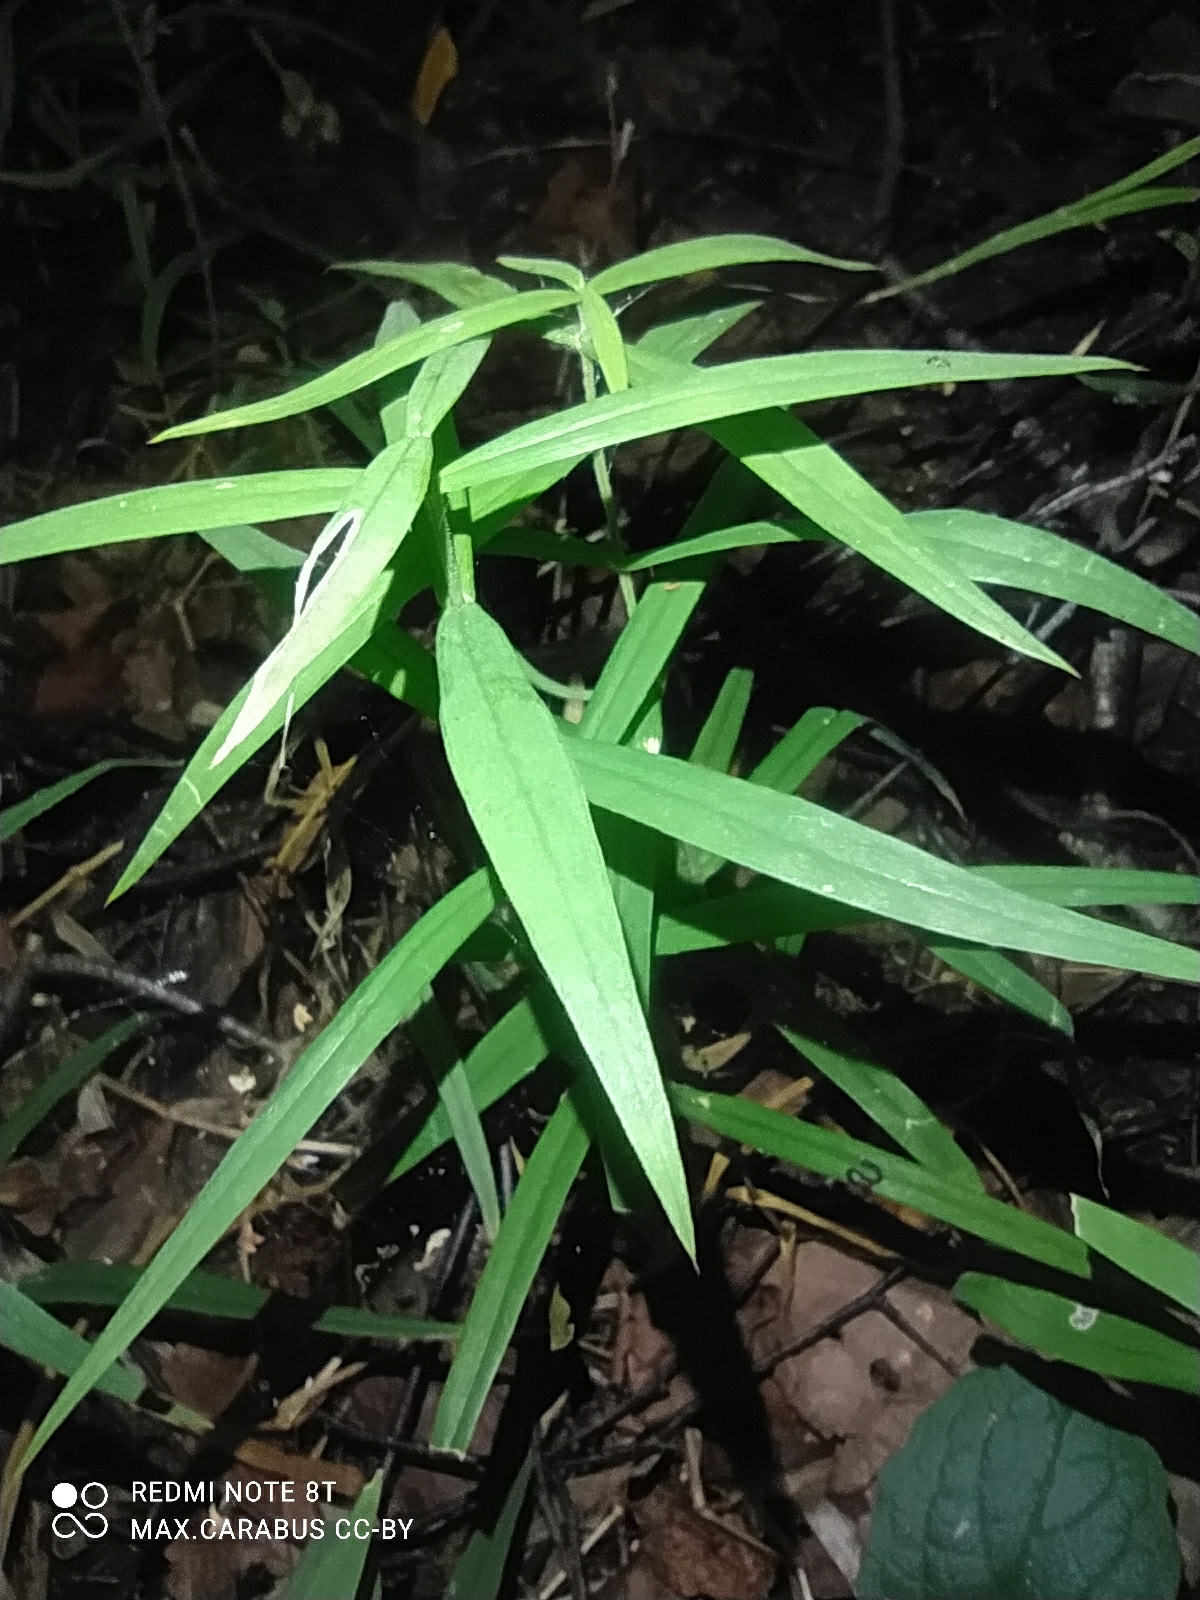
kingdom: Plantae
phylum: Tracheophyta
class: Magnoliopsida
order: Caryophyllales
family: Caryophyllaceae
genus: Rabelera
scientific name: Rabelera holostea
